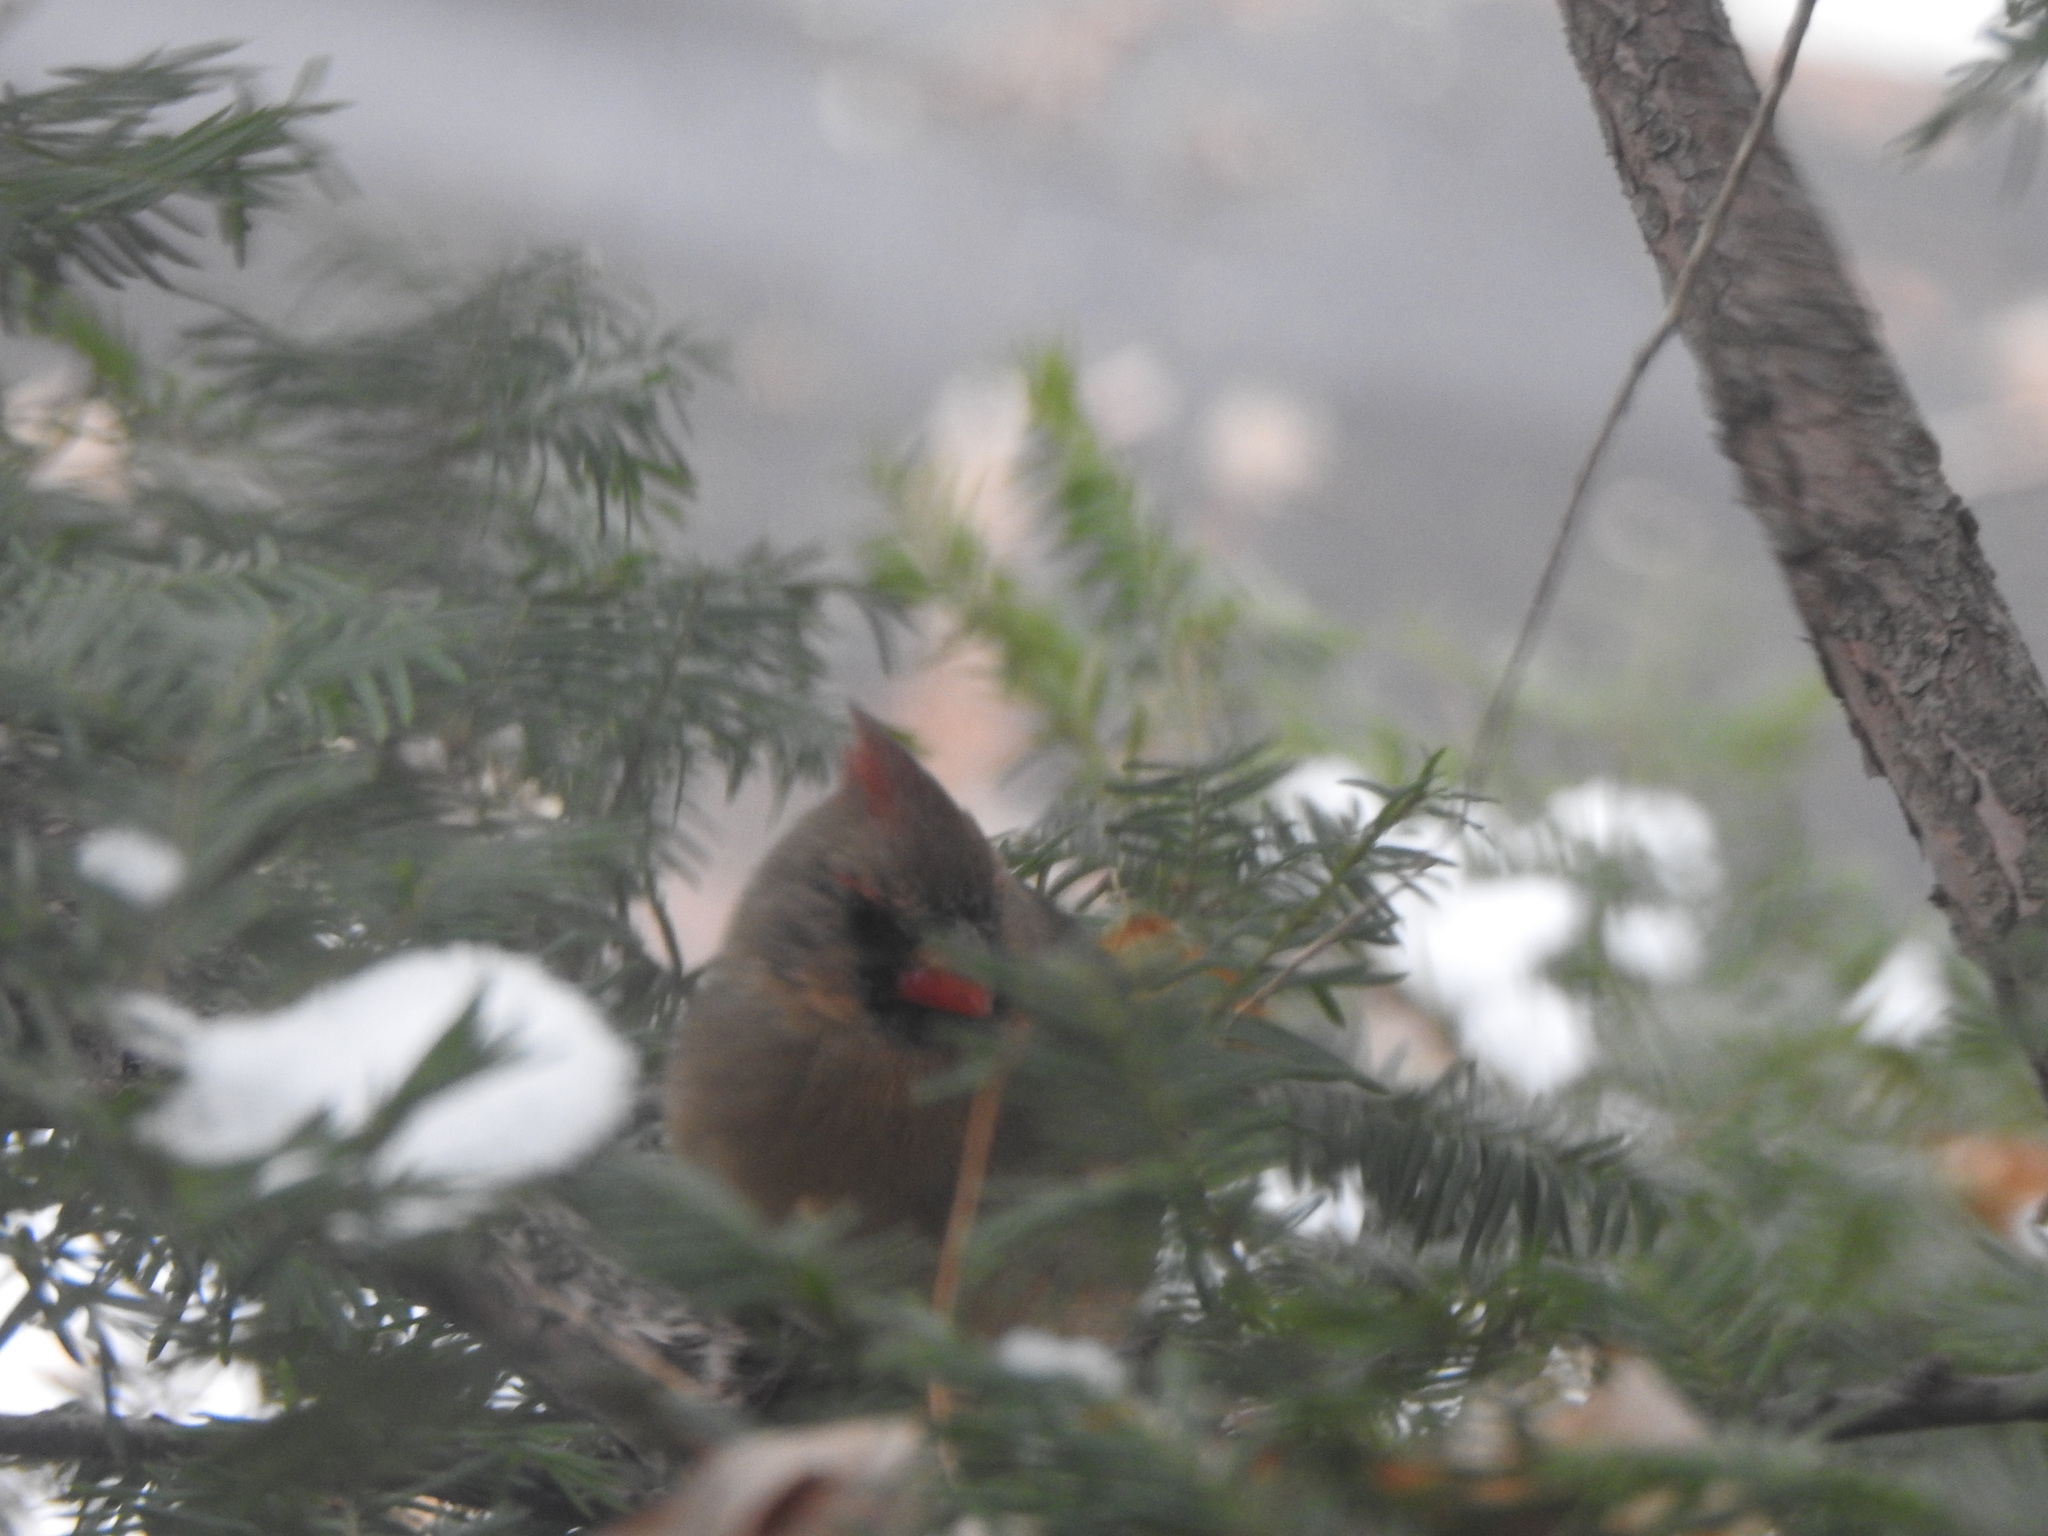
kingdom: Animalia
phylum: Chordata
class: Aves
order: Passeriformes
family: Cardinalidae
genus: Cardinalis
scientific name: Cardinalis cardinalis
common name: Northern cardinal
